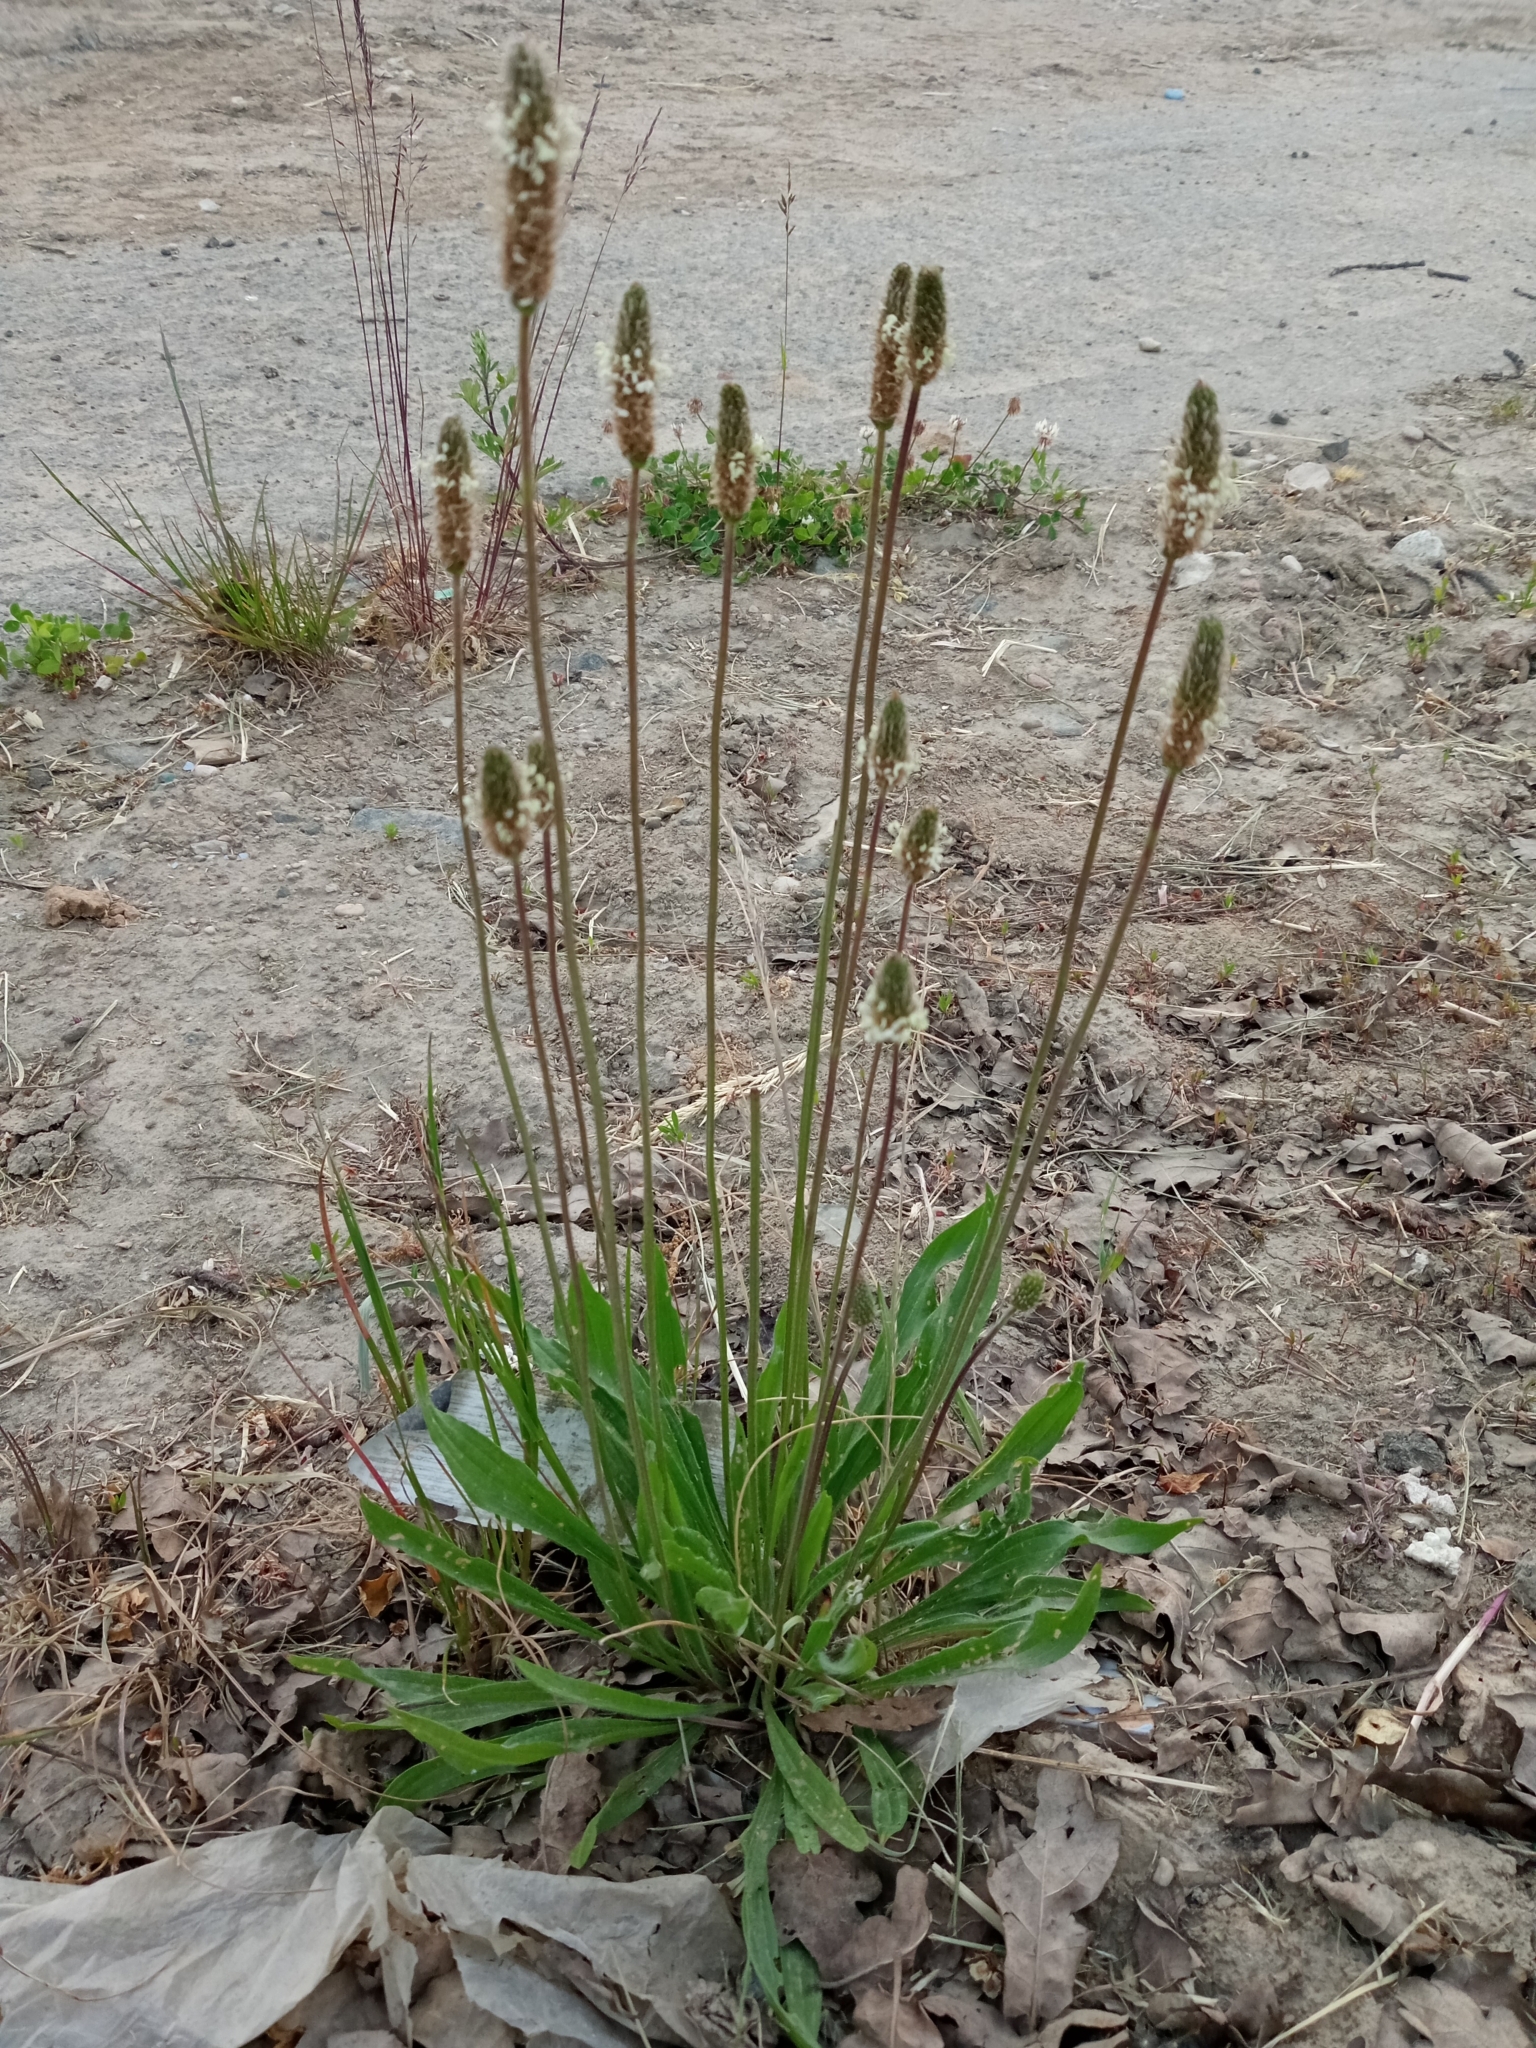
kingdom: Plantae
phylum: Tracheophyta
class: Magnoliopsida
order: Lamiales
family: Plantaginaceae
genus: Plantago
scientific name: Plantago lanceolata
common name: Ribwort plantain
